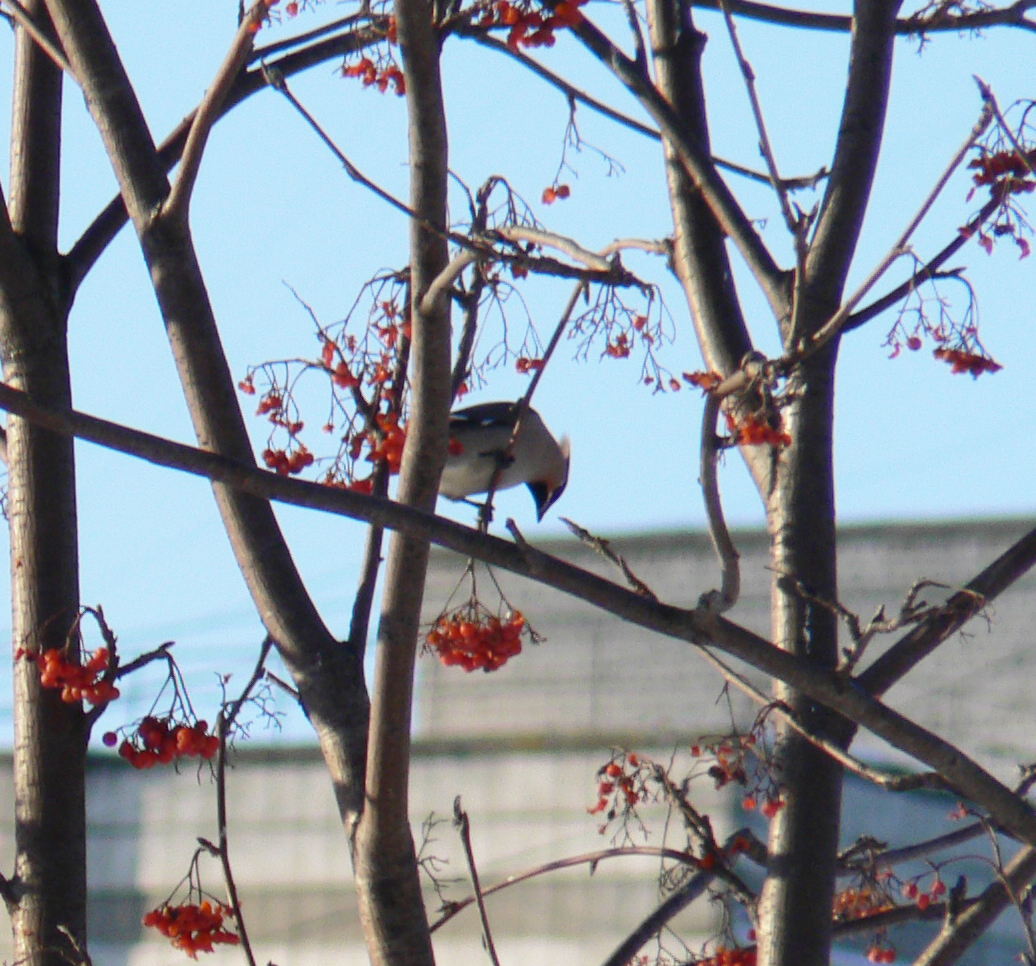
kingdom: Animalia
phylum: Chordata
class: Aves
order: Passeriformes
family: Bombycillidae
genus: Bombycilla
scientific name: Bombycilla garrulus
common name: Bohemian waxwing
